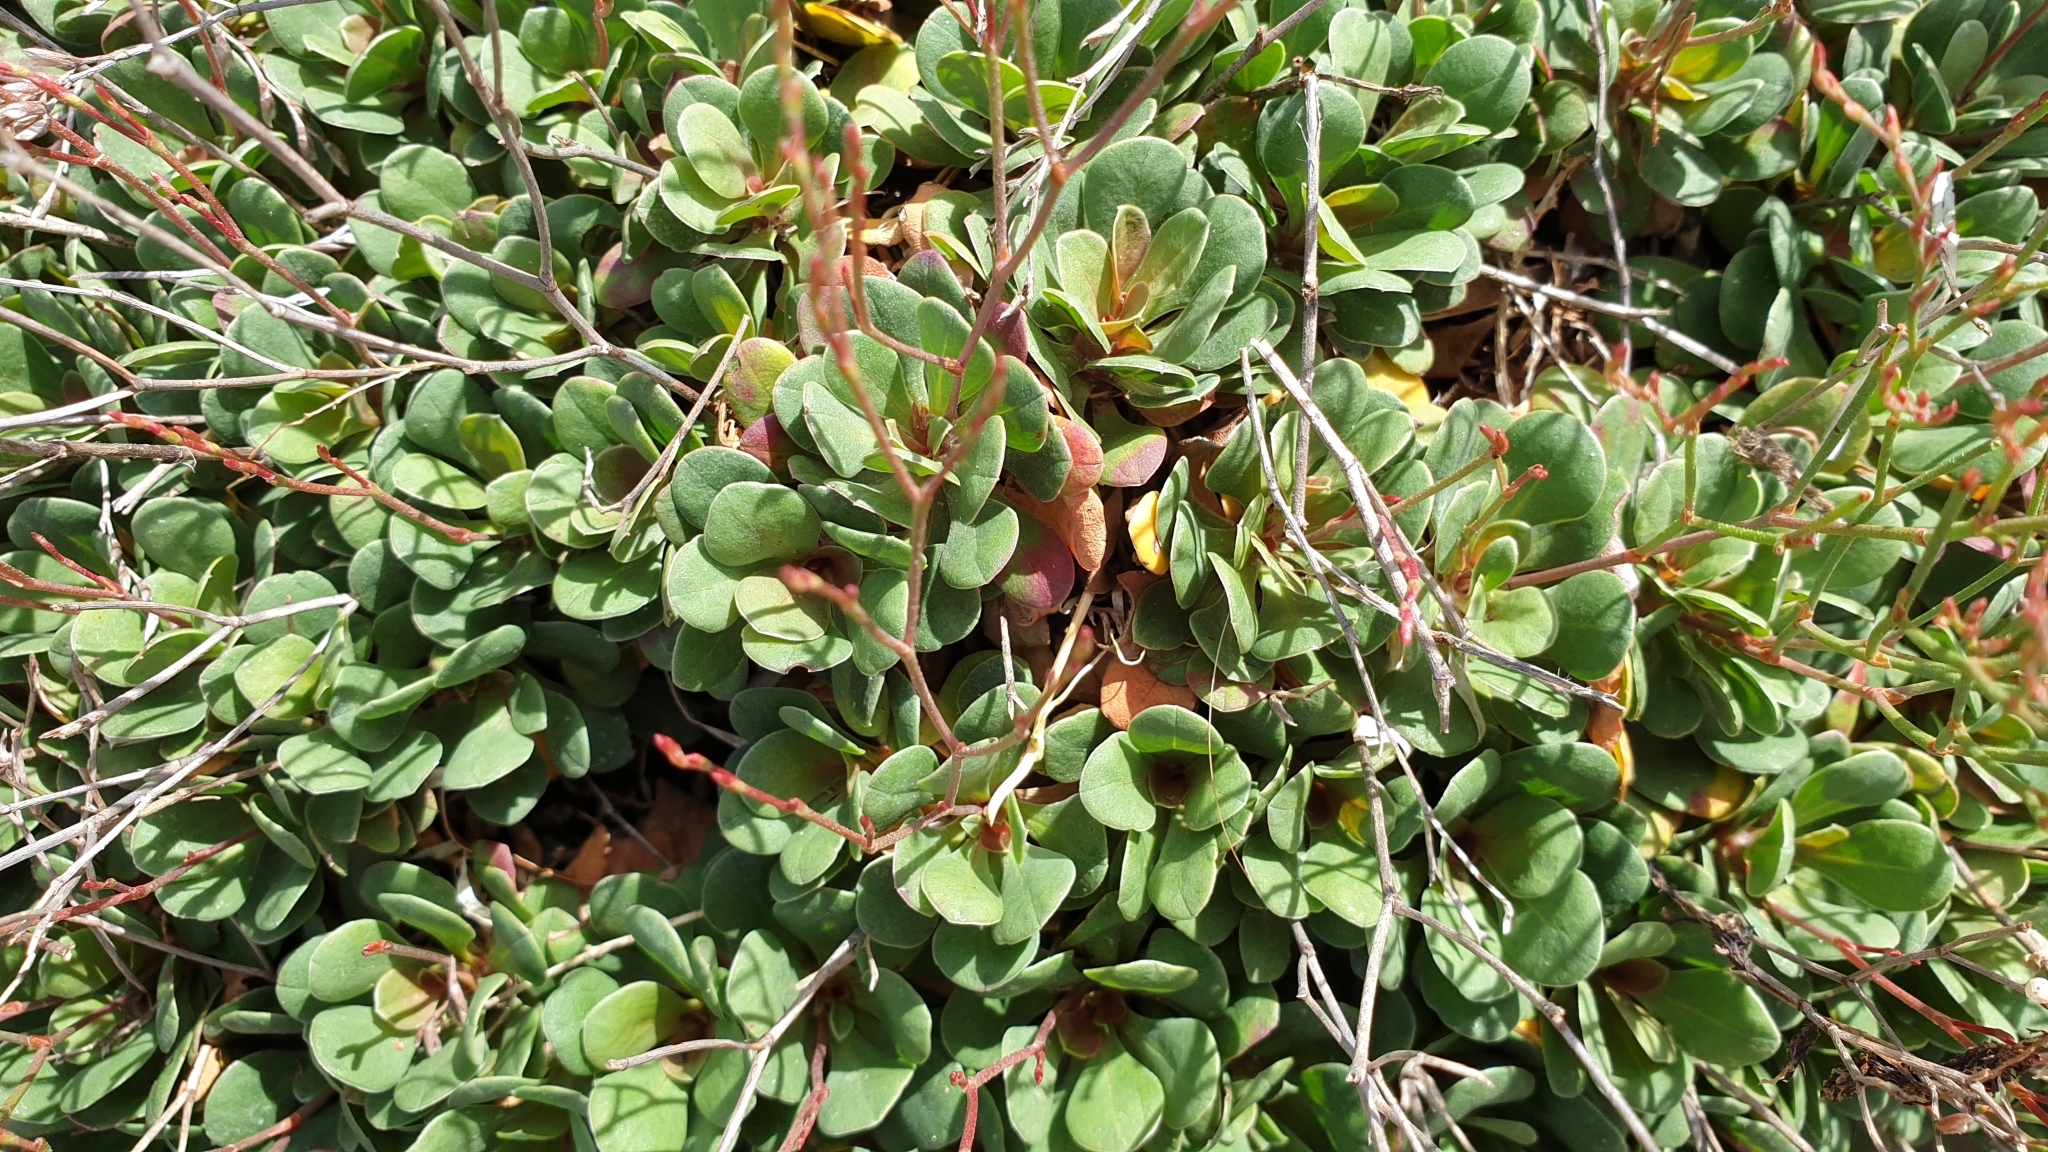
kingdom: Plantae
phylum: Tracheophyta
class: Magnoliopsida
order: Caryophyllales
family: Plumbaginaceae
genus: Limonium
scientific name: Limonium hyblaeum
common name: Rottingdean sea-lavender
